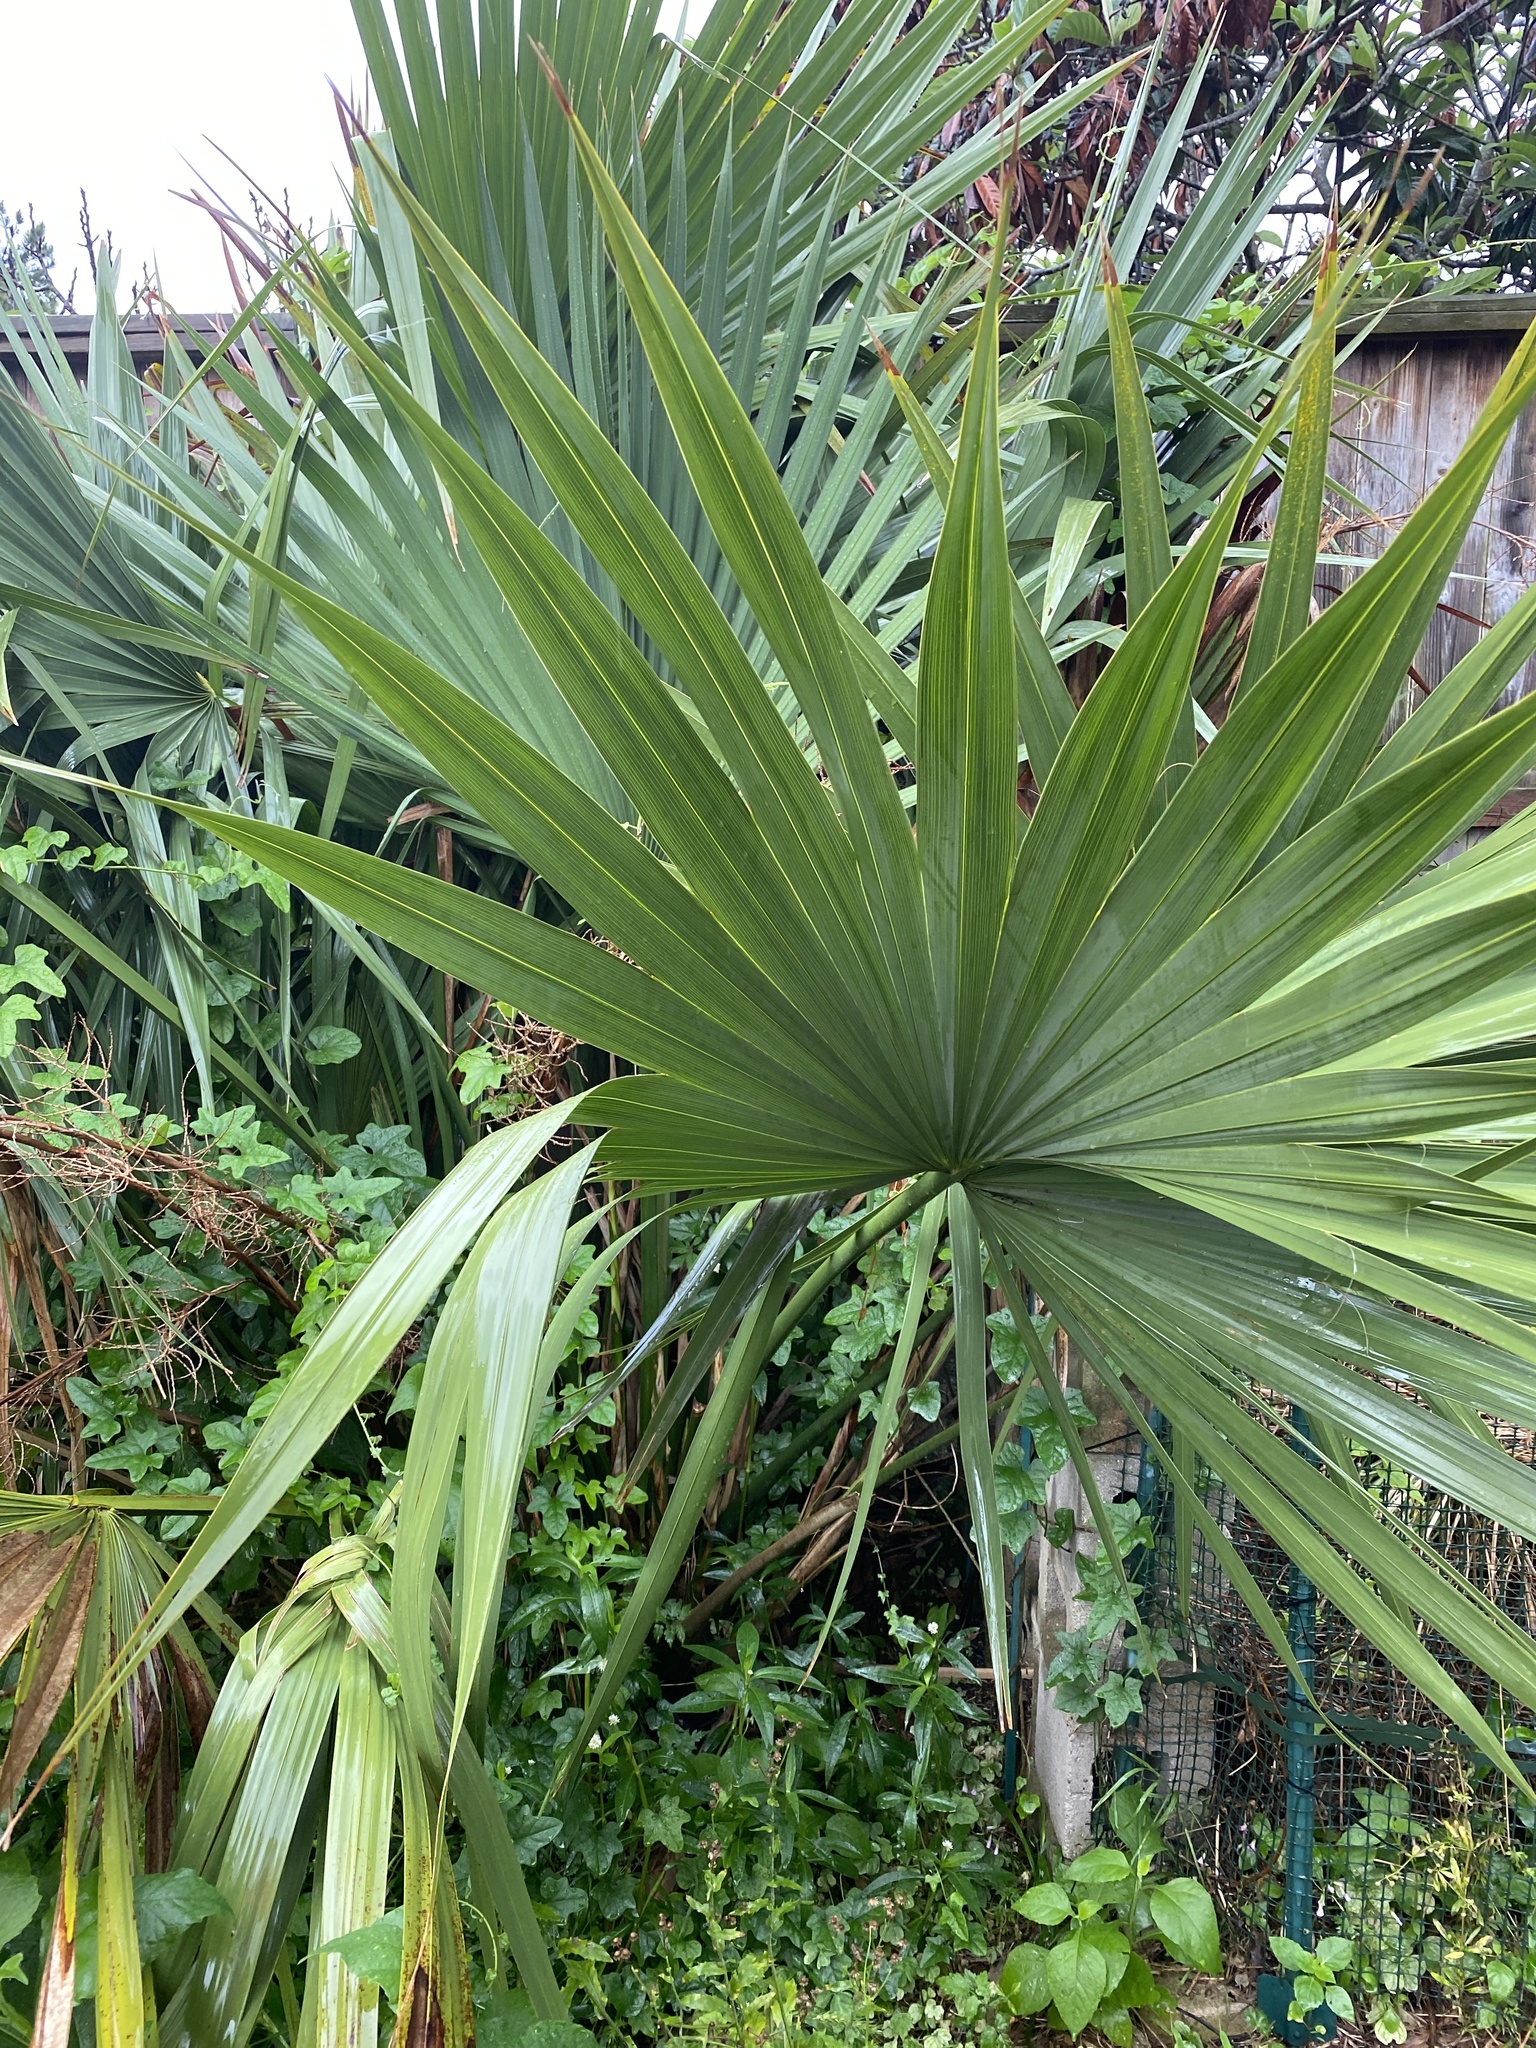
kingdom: Plantae
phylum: Tracheophyta
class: Liliopsida
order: Arecales
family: Arecaceae
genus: Sabal
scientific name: Sabal minor
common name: Dwarf palmetto
